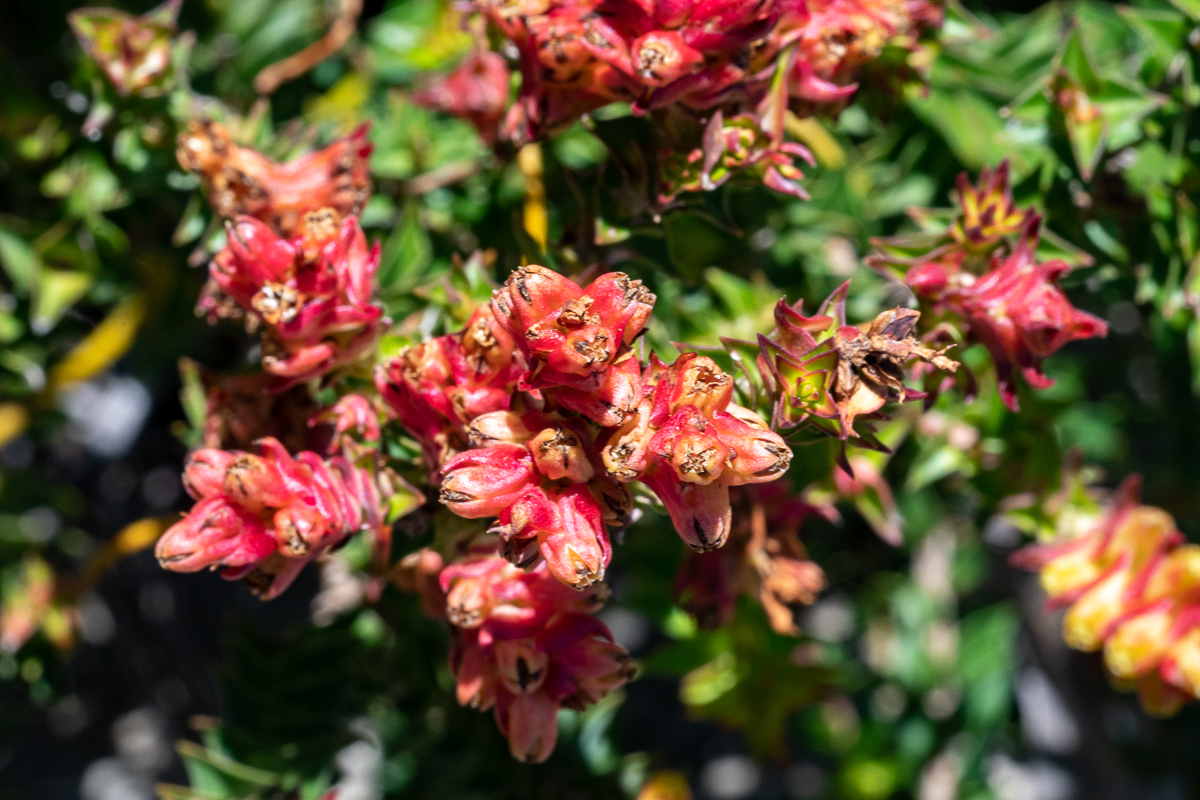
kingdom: Plantae
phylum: Tracheophyta
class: Magnoliopsida
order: Myrtales
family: Penaeaceae
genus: Penaea
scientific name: Penaea mucronata
